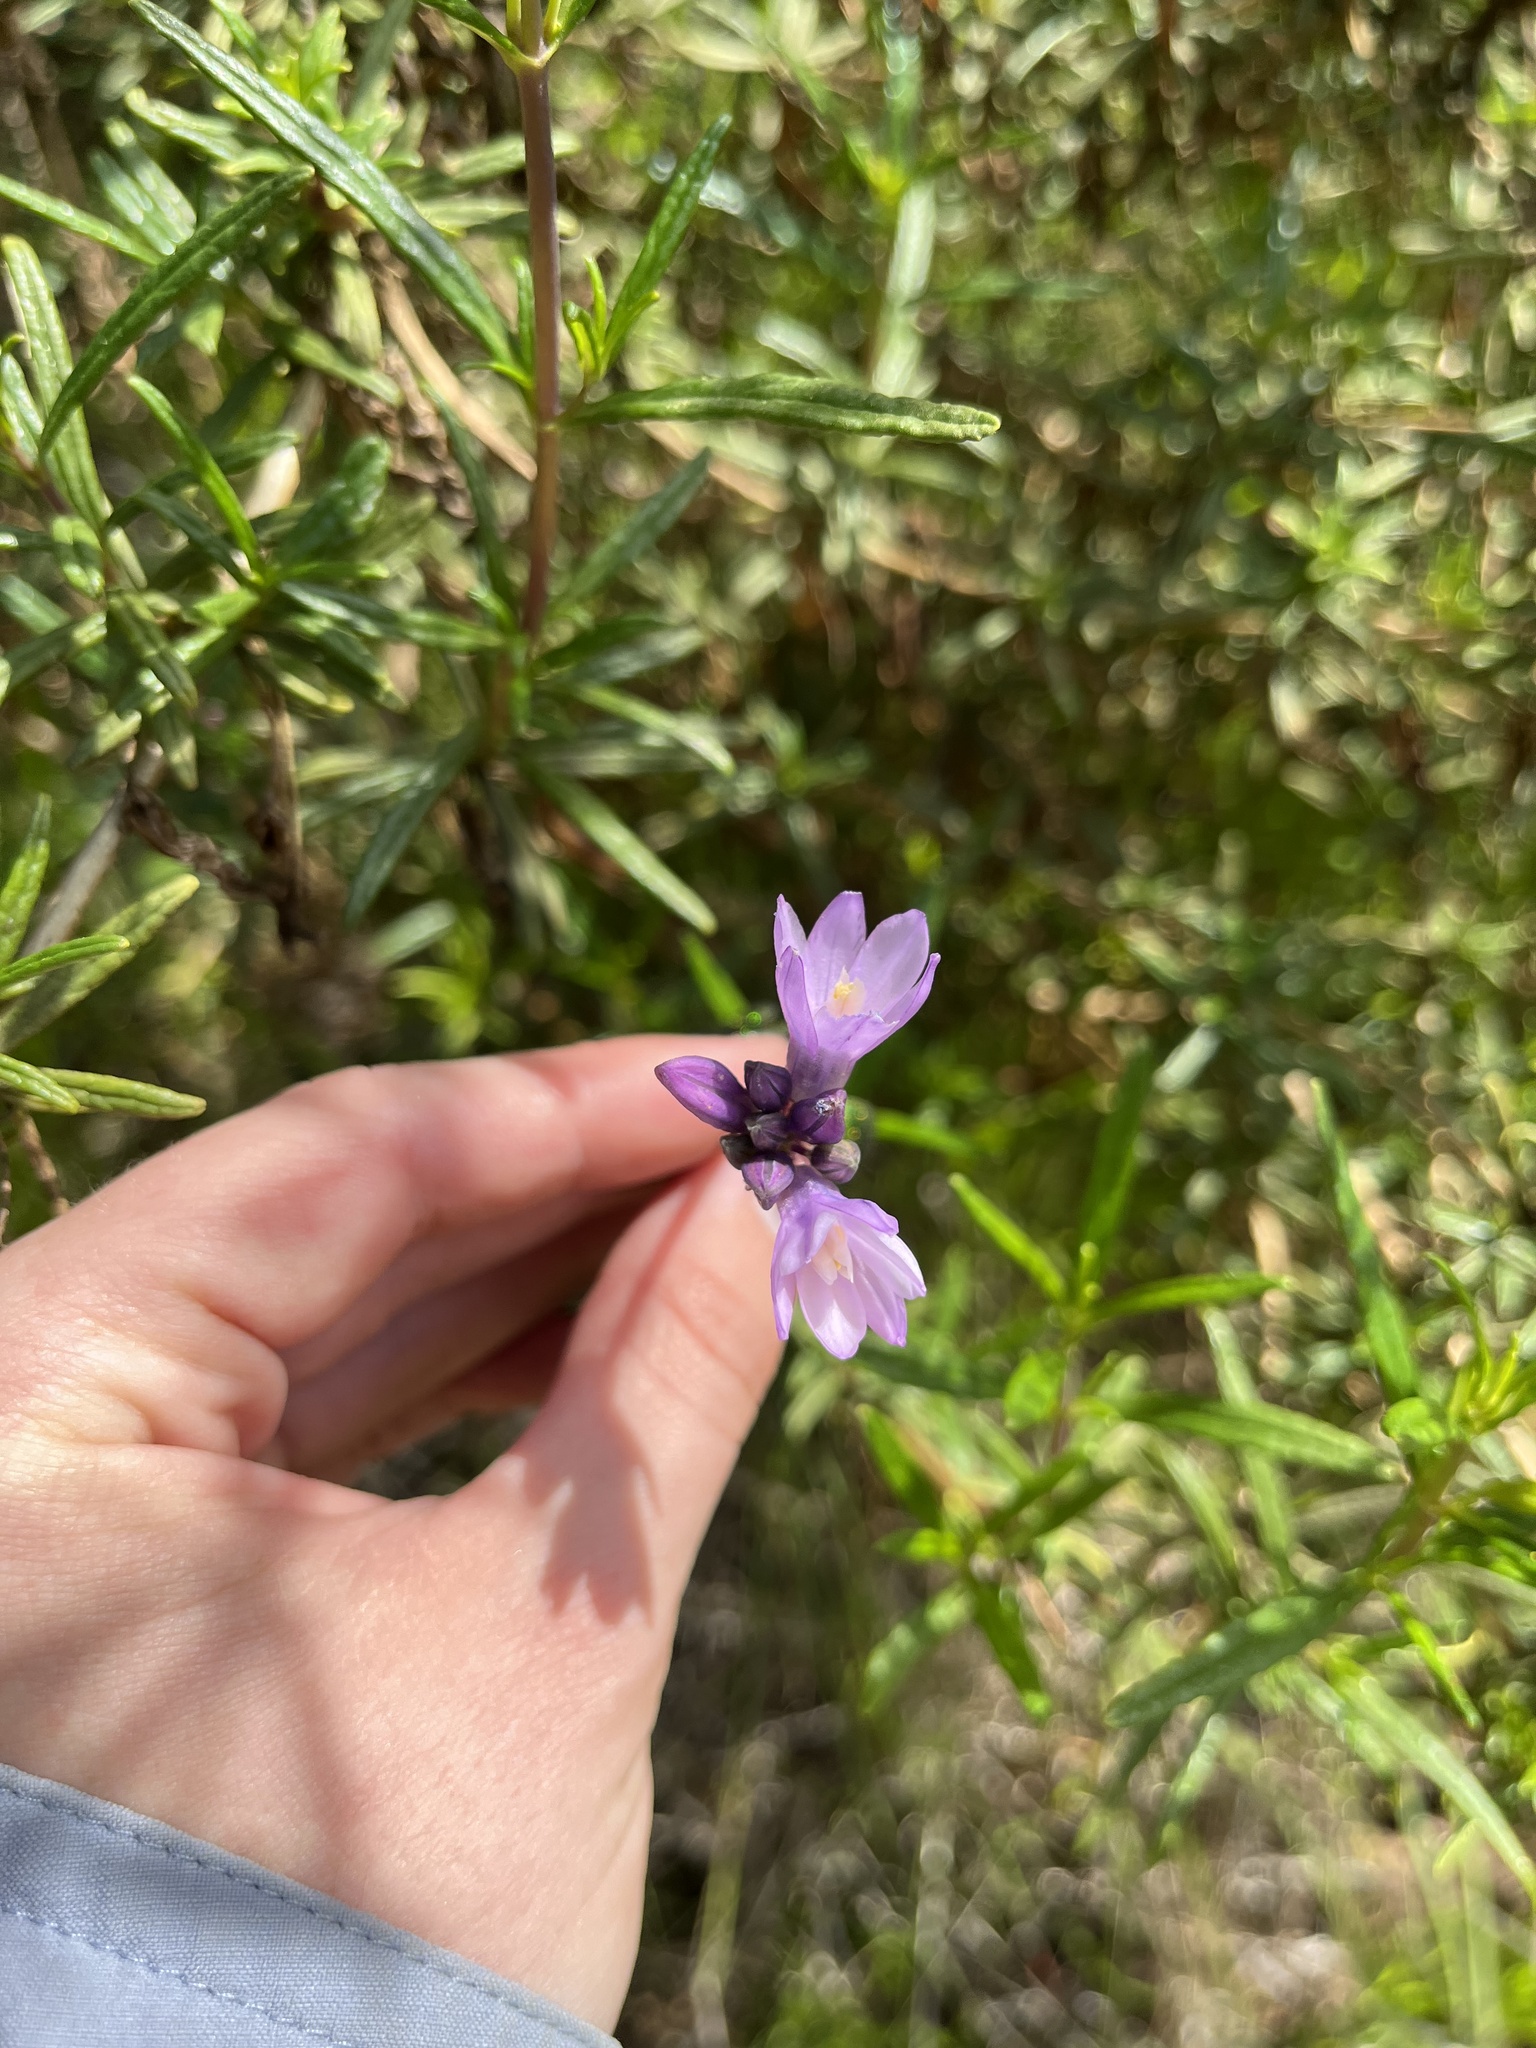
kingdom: Plantae
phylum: Tracheophyta
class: Liliopsida
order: Asparagales
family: Asparagaceae
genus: Dipterostemon
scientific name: Dipterostemon capitatus
